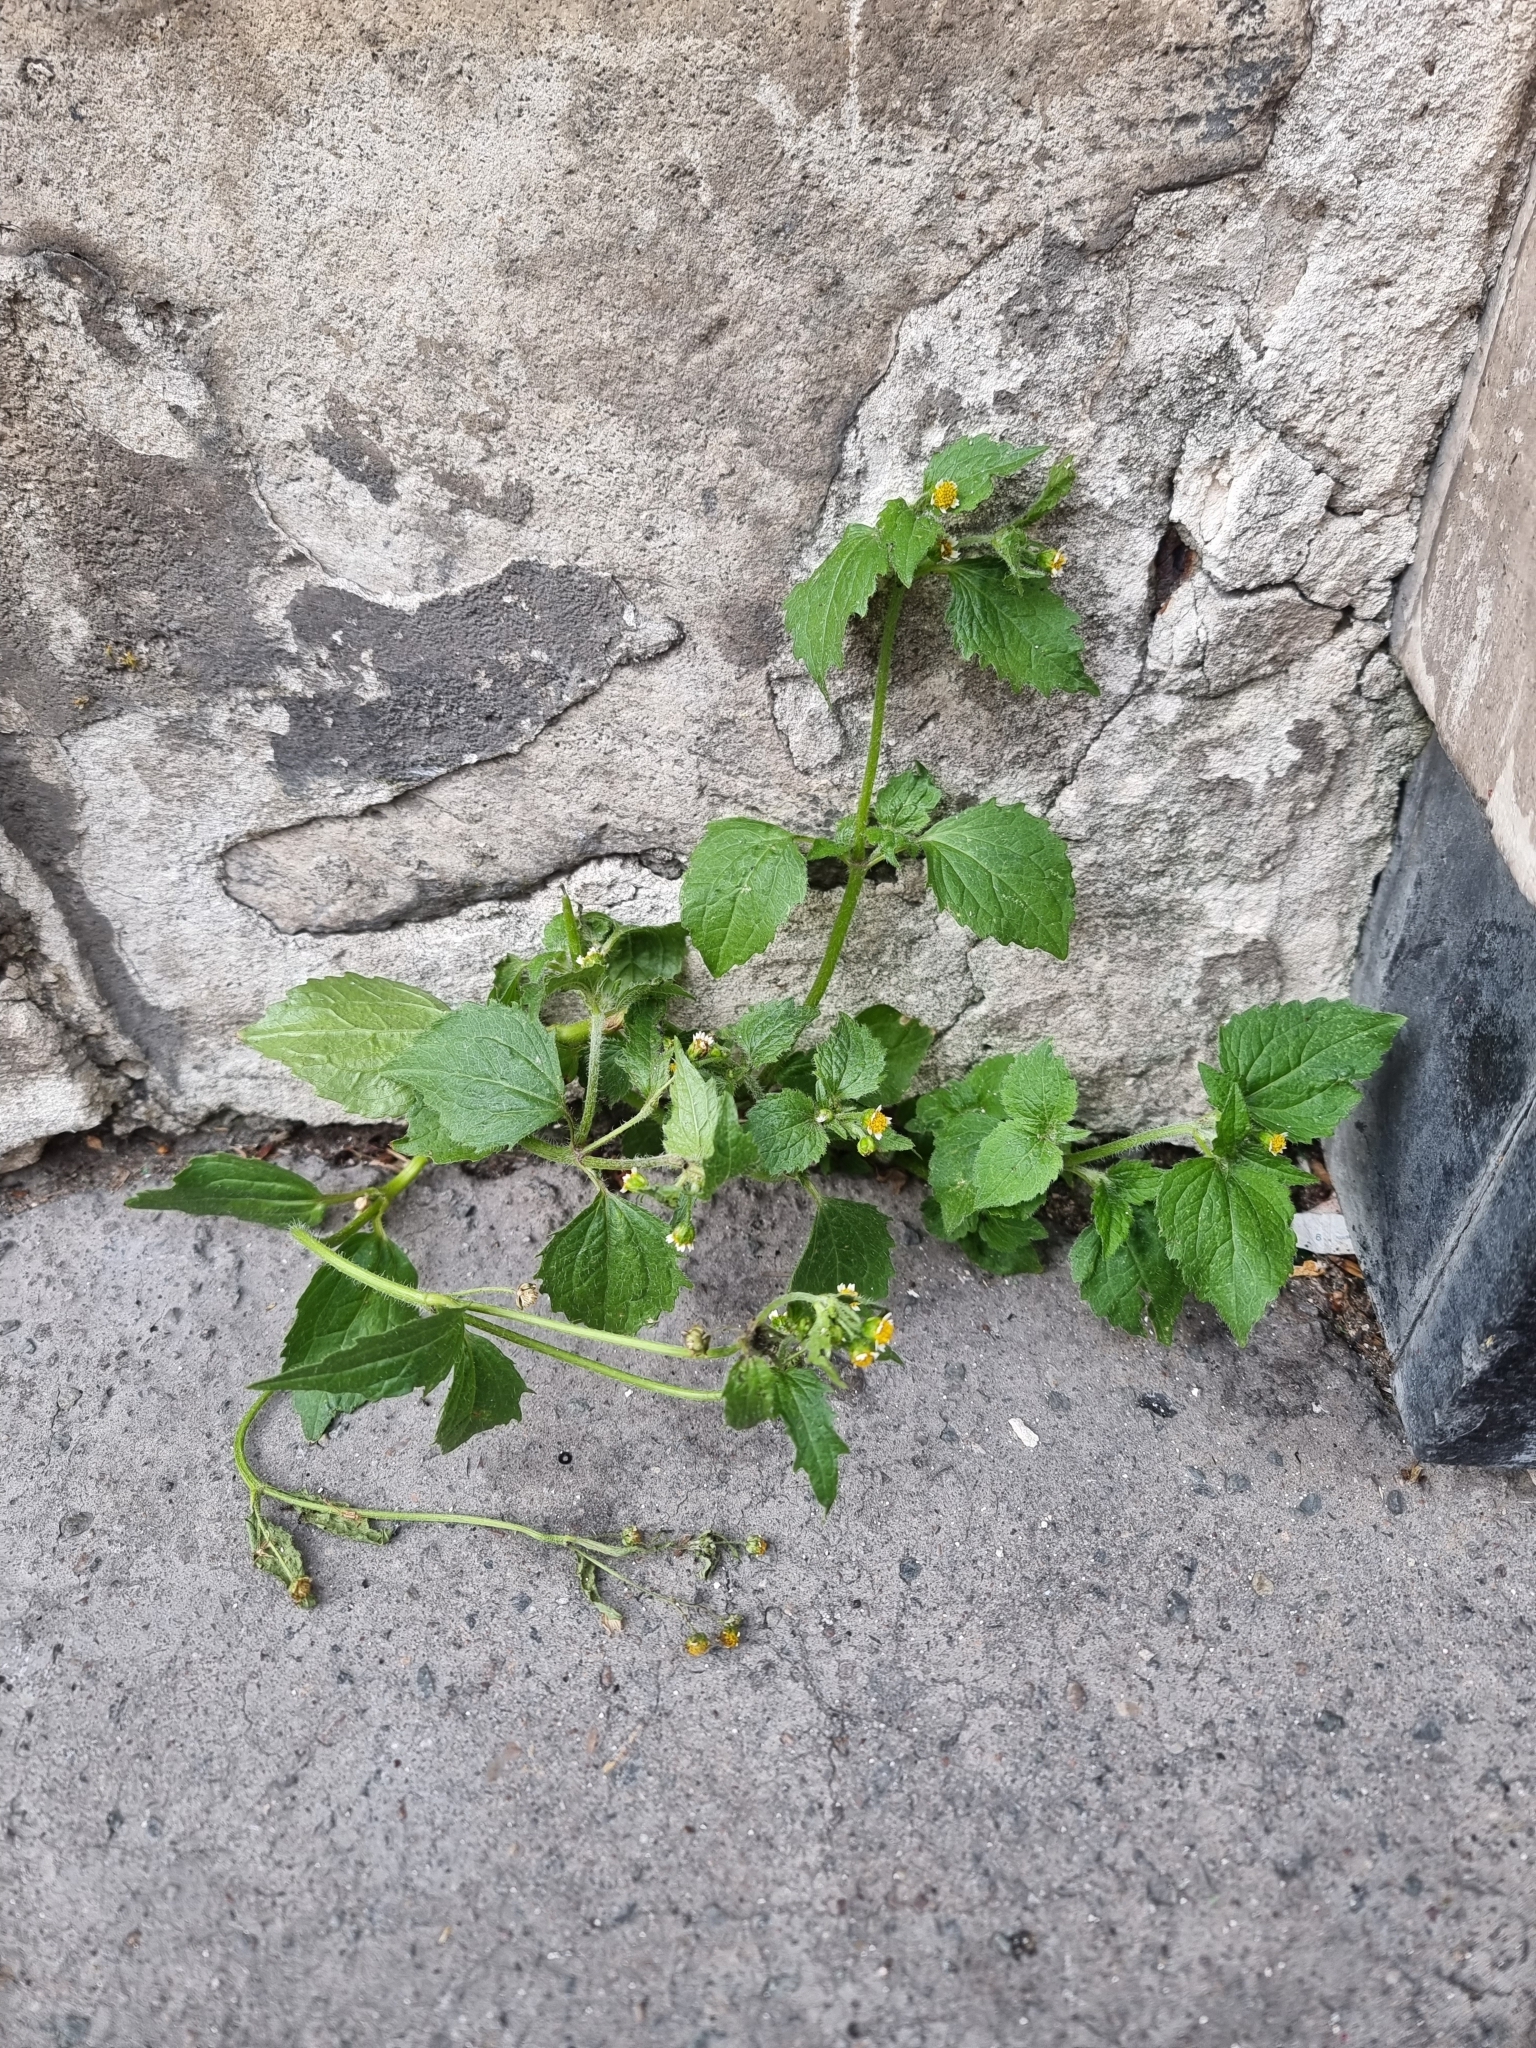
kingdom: Plantae
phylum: Tracheophyta
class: Magnoliopsida
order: Asterales
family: Asteraceae
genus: Galinsoga
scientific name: Galinsoga quadriradiata
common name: Shaggy soldier
